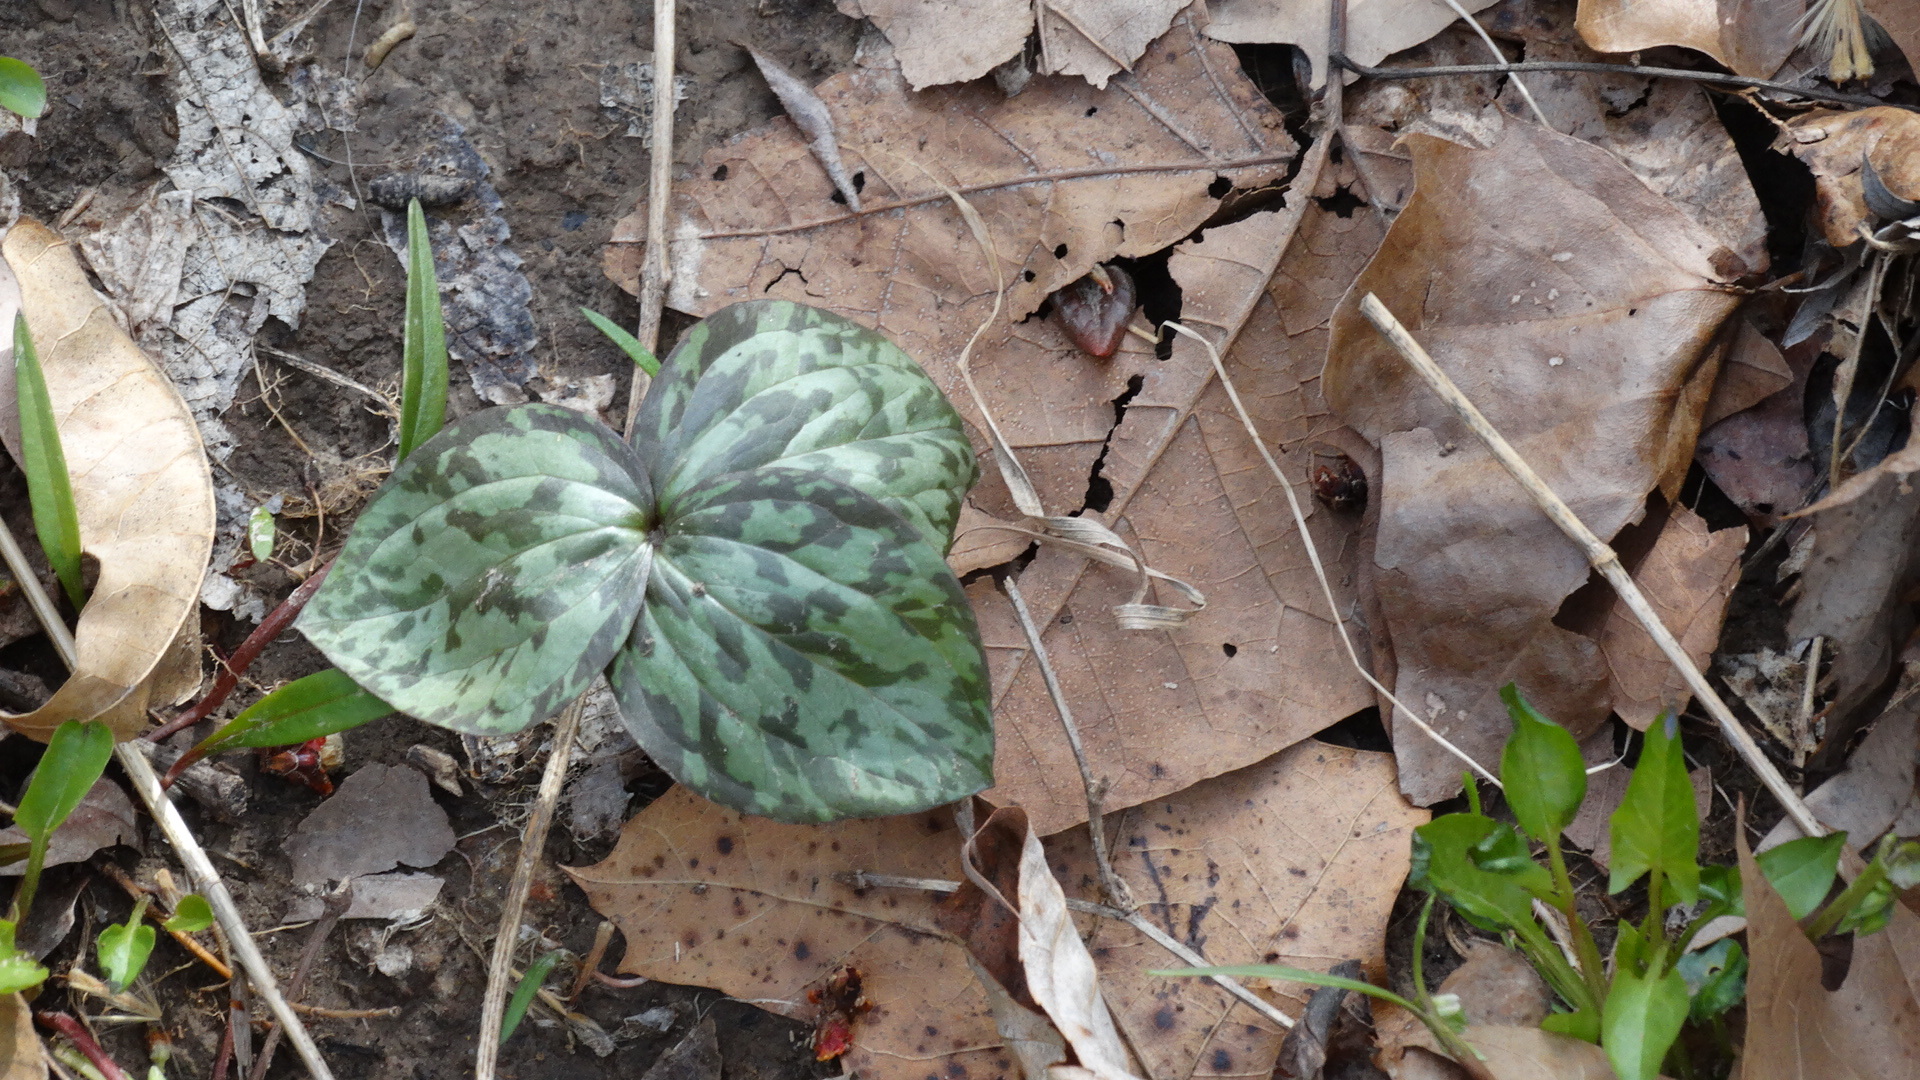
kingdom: Plantae
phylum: Tracheophyta
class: Liliopsida
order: Liliales
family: Melanthiaceae
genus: Trillium
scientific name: Trillium recurvatum
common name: Bloody butcher
